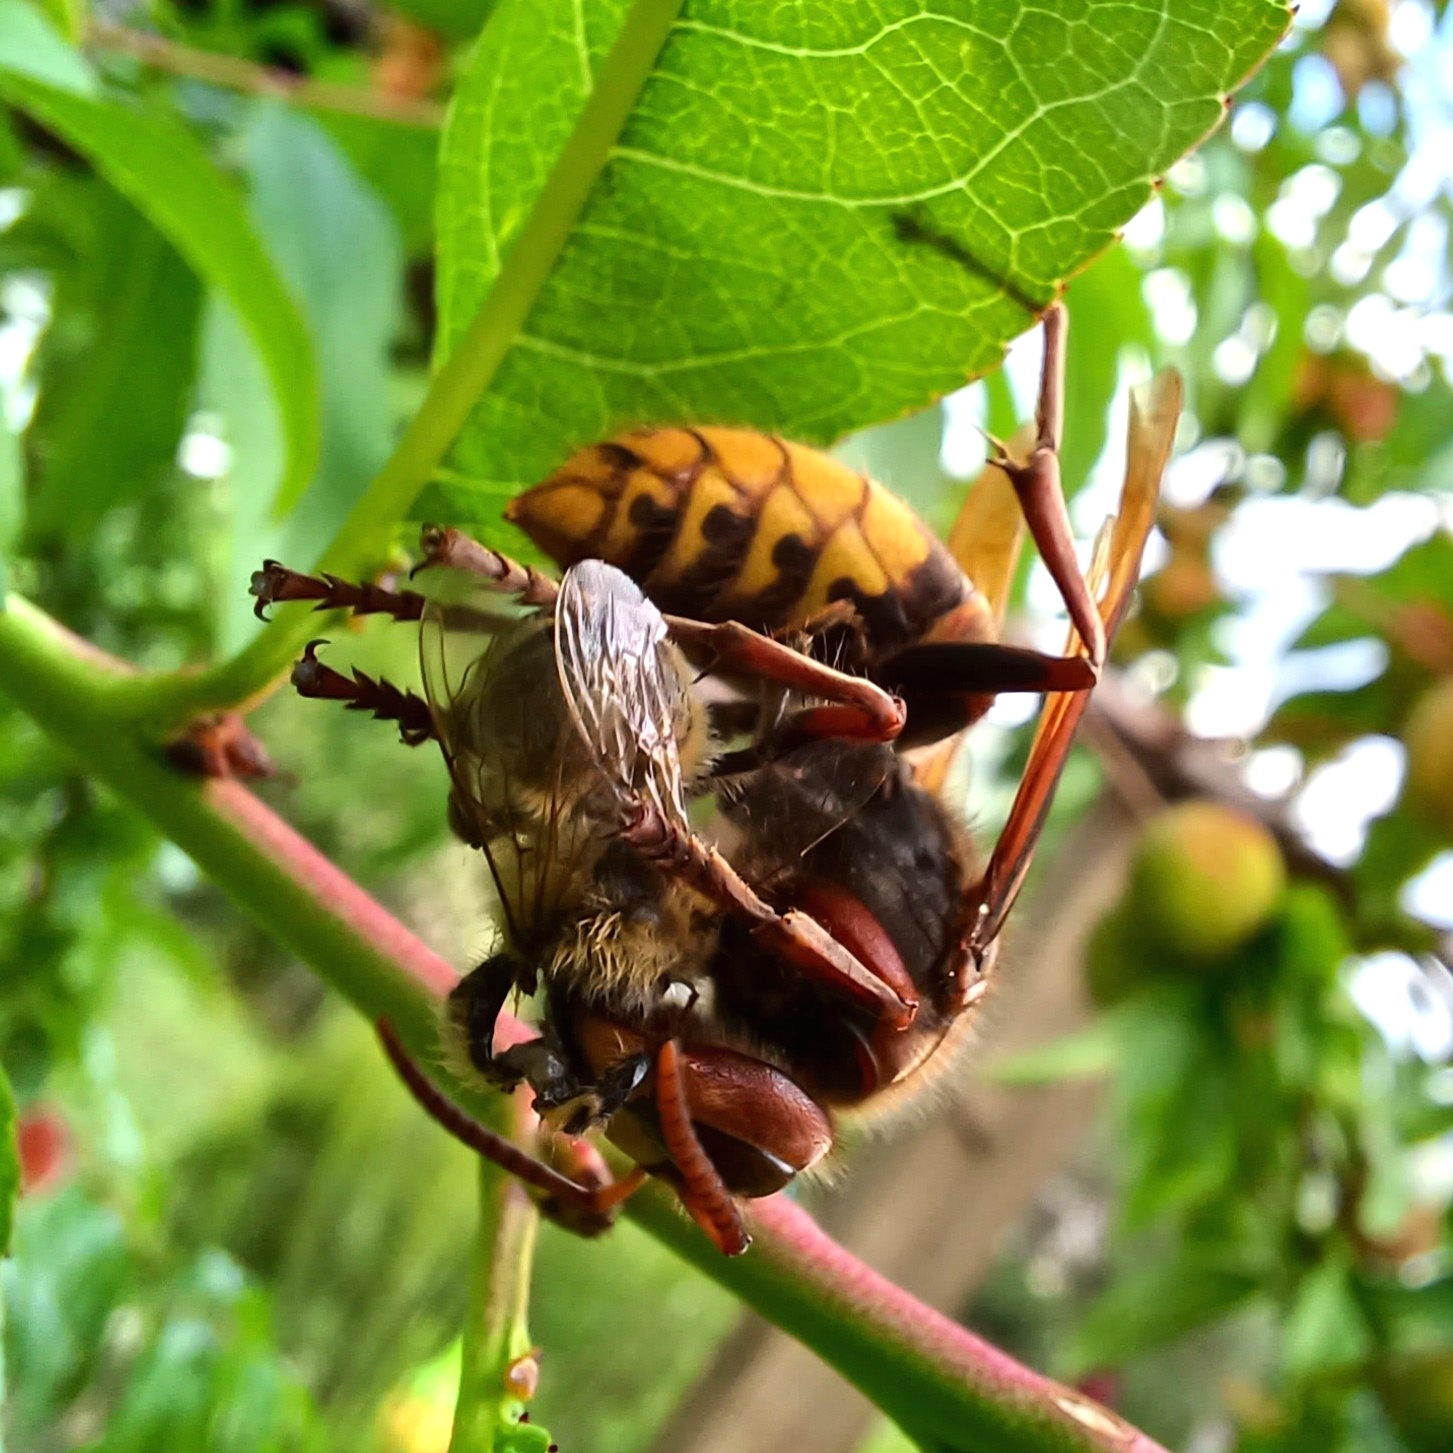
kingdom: Animalia
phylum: Arthropoda
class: Insecta
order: Hymenoptera
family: Vespidae
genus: Vespa
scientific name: Vespa crabro
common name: Hornet
